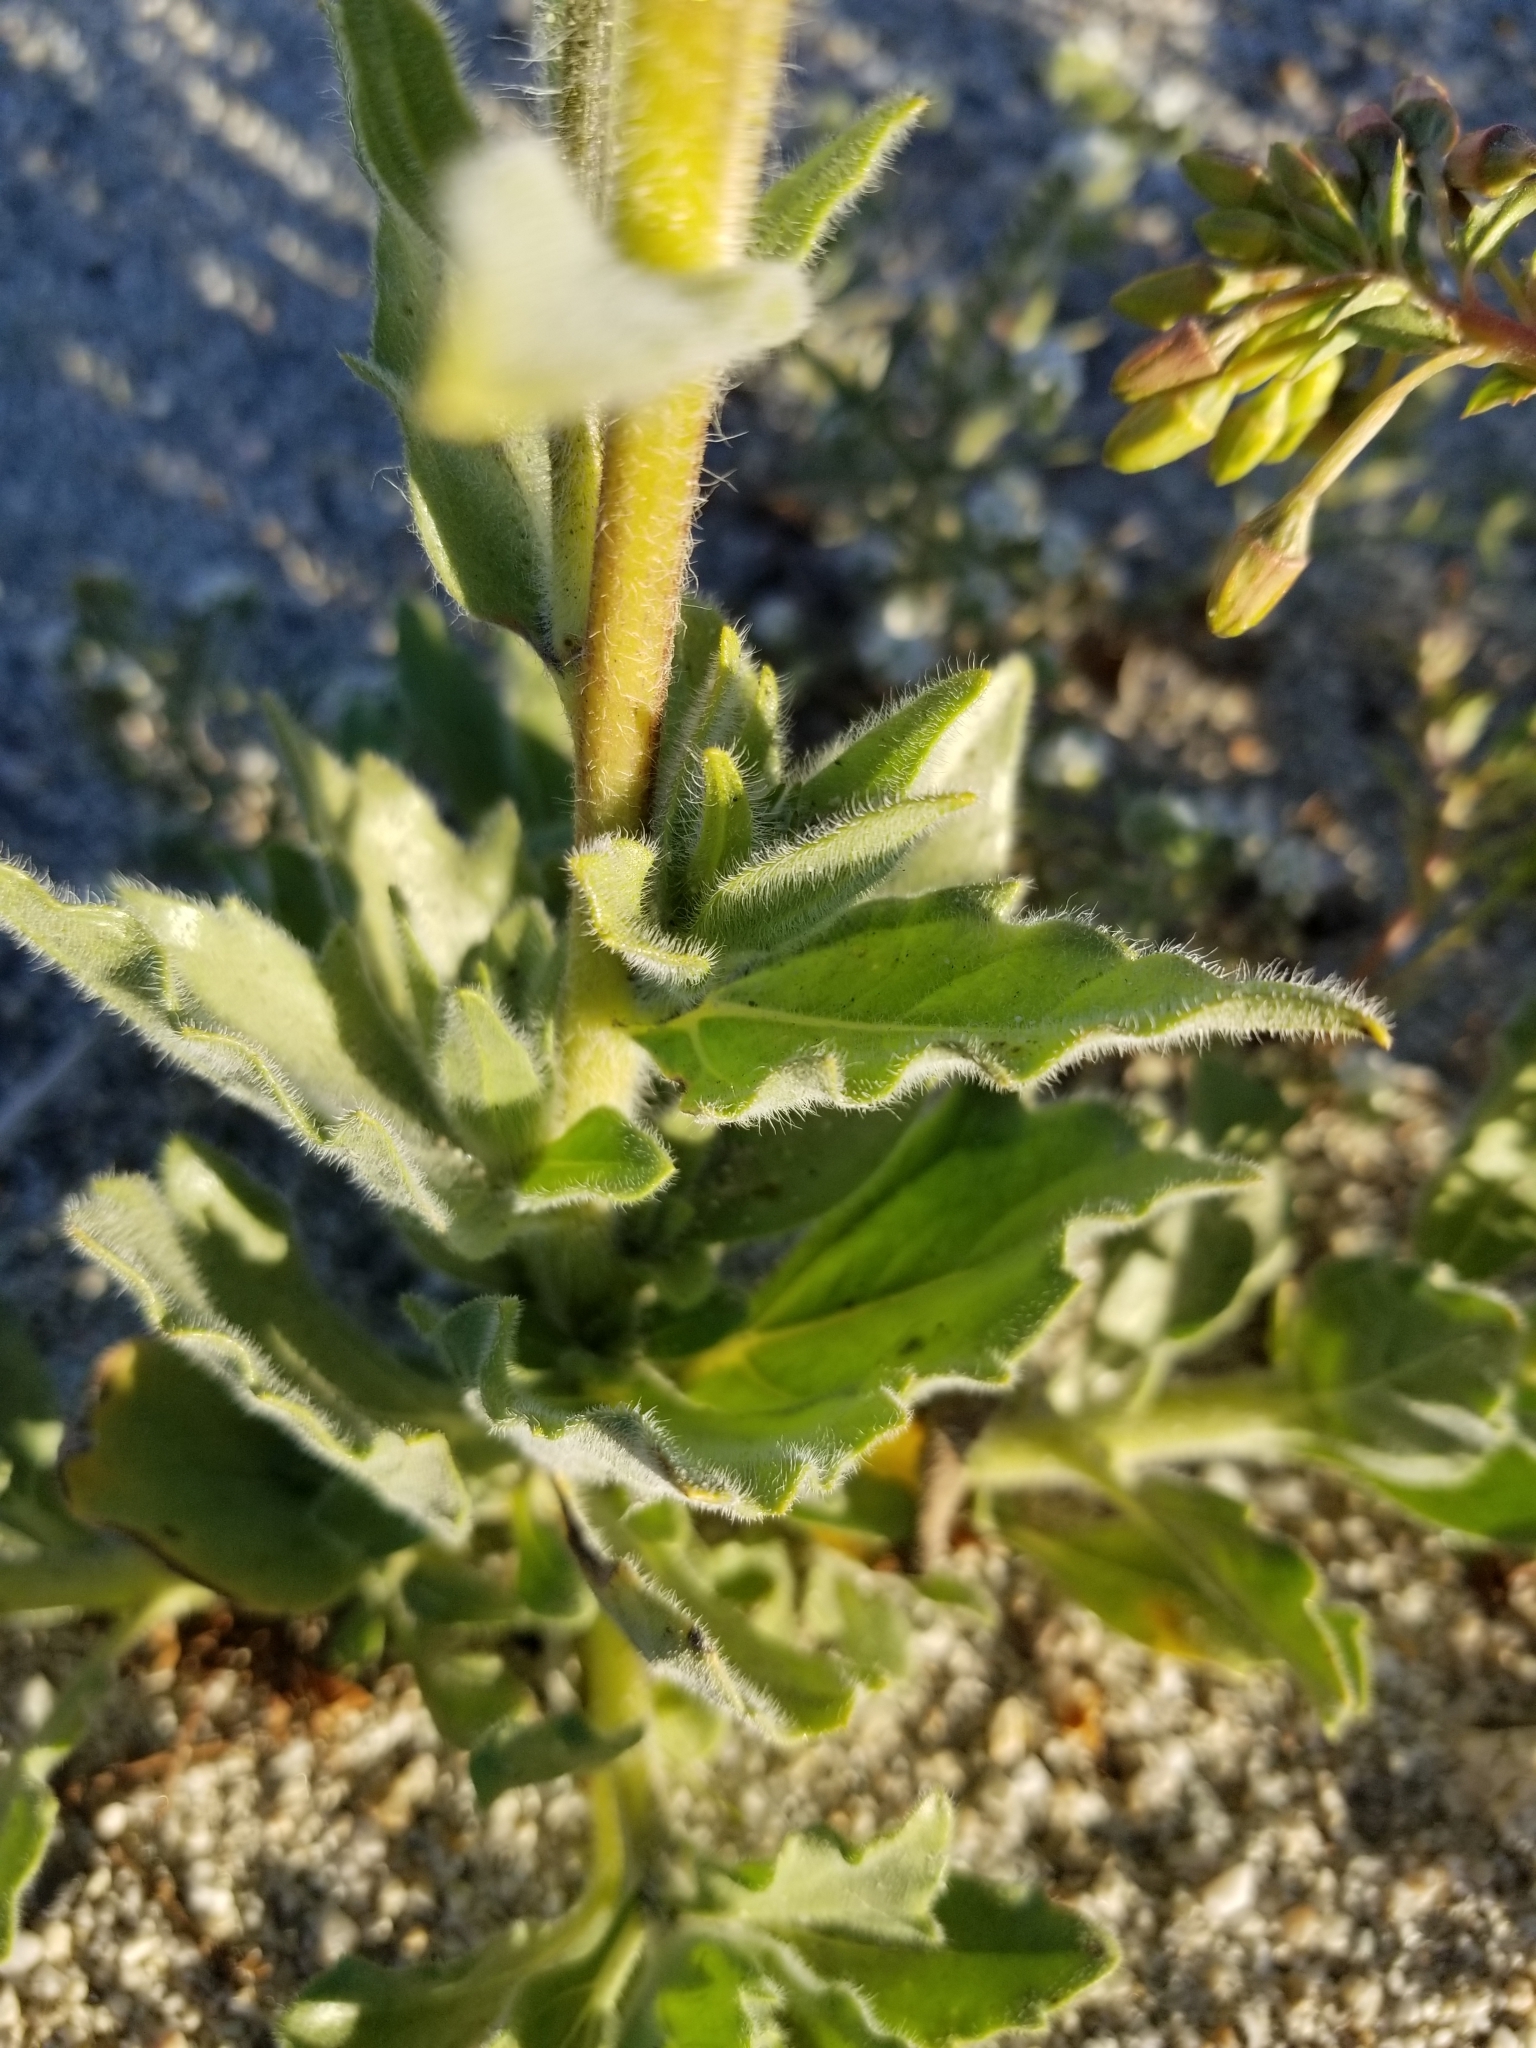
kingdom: Plantae
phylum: Tracheophyta
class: Magnoliopsida
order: Asterales
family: Asteraceae
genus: Geraea
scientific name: Geraea canescens
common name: Desert-gold
